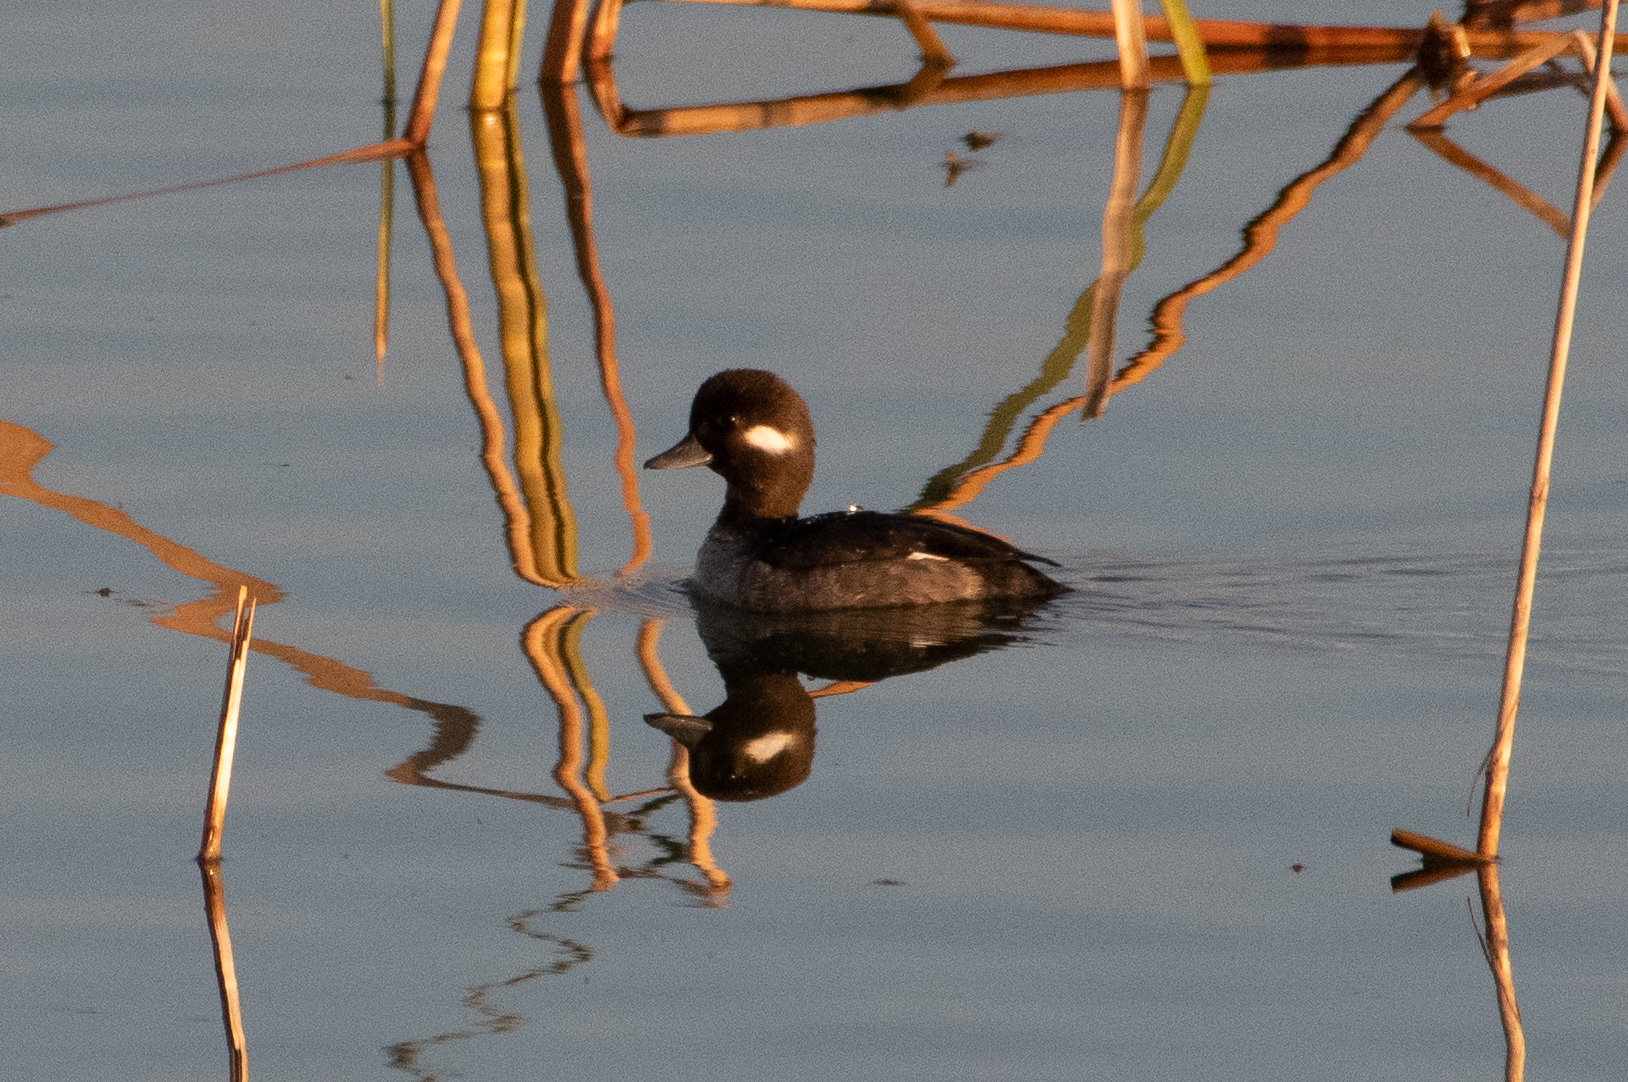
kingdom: Animalia
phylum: Chordata
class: Aves
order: Anseriformes
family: Anatidae
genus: Bucephala
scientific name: Bucephala albeola
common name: Bufflehead
